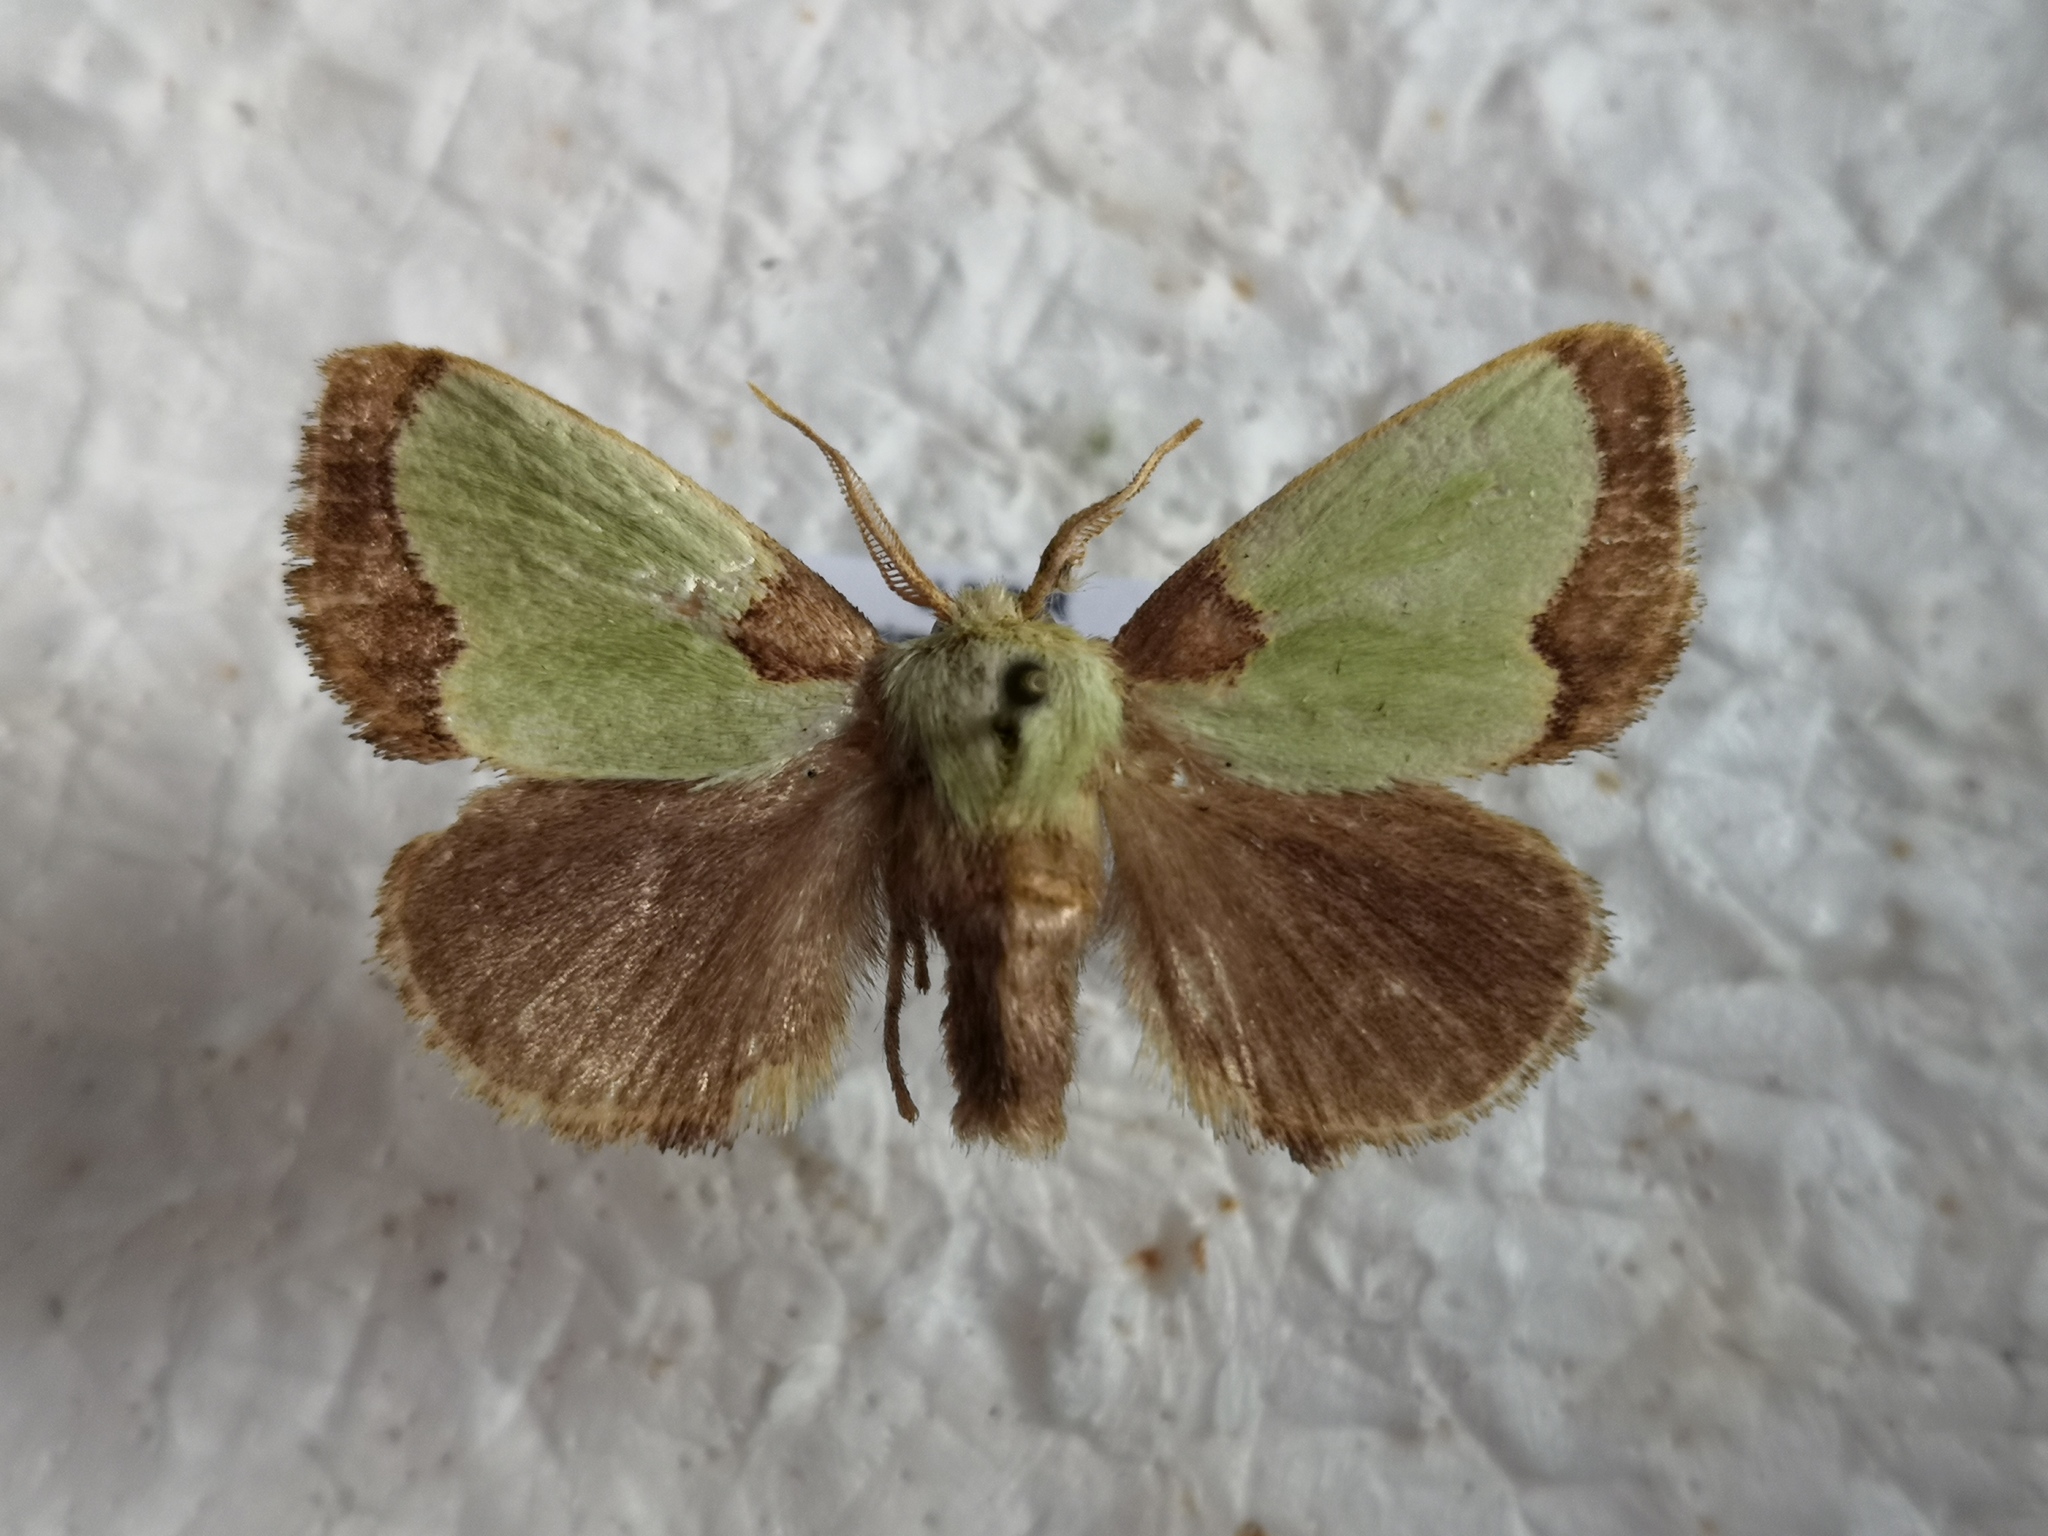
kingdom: Animalia
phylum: Arthropoda
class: Insecta
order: Lepidoptera
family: Limacodidae
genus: Parasa
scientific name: Parasa sinica
